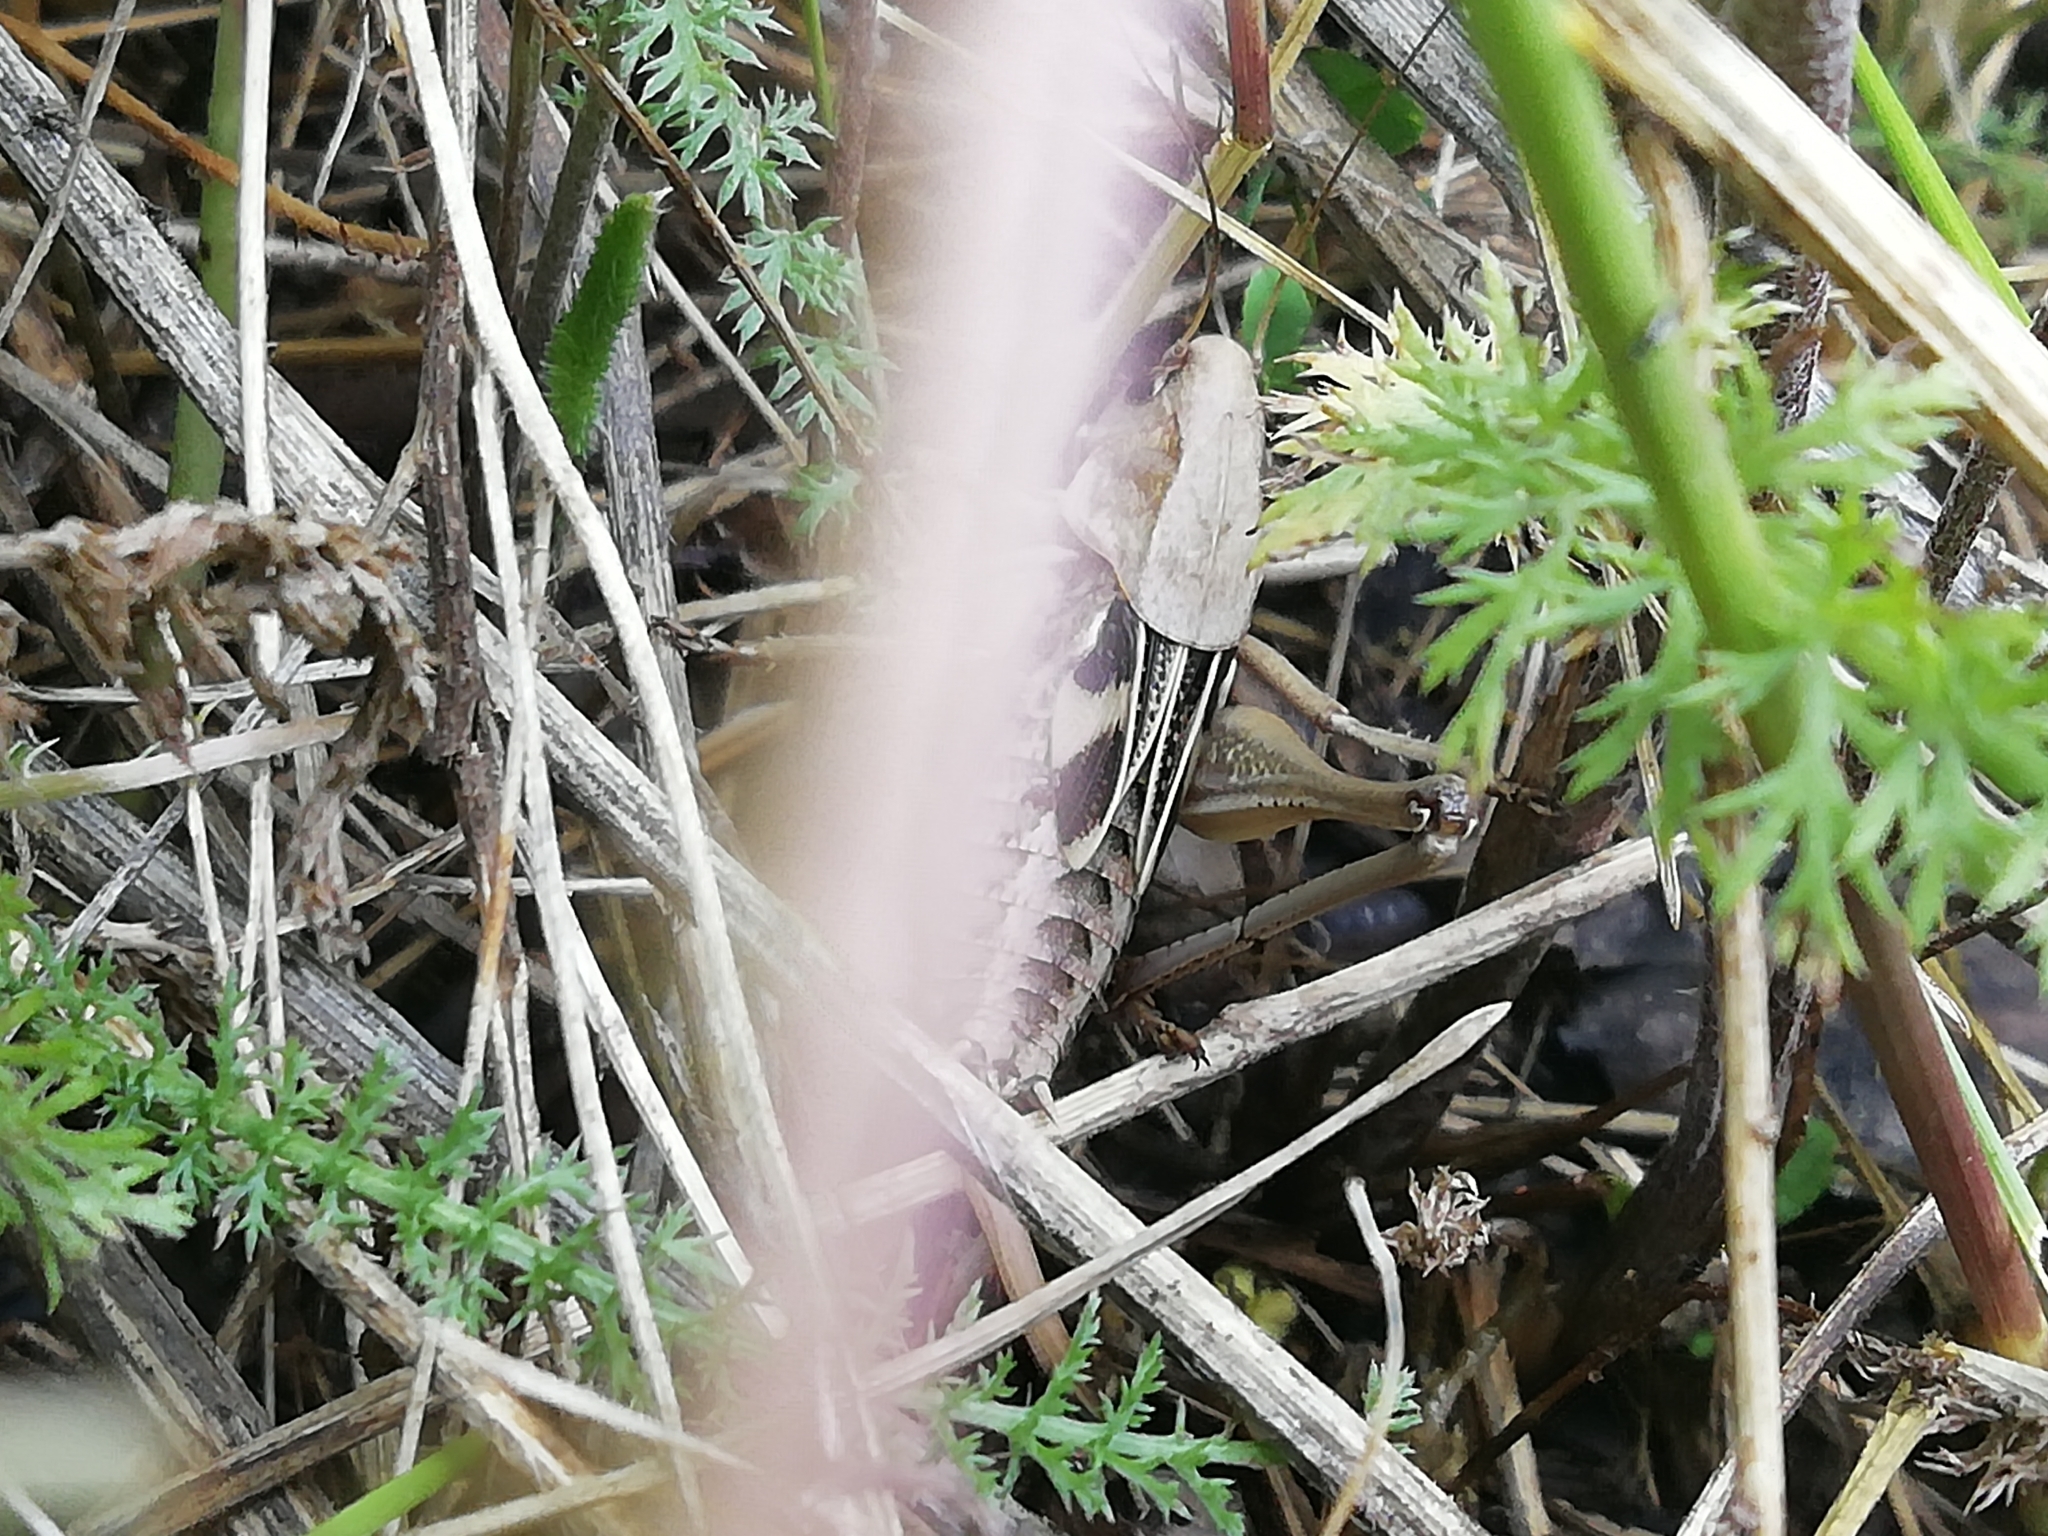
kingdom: Animalia
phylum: Arthropoda
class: Insecta
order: Orthoptera
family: Tettigoniidae
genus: Decticus
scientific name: Decticus verrucivorus
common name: Wart-biter
